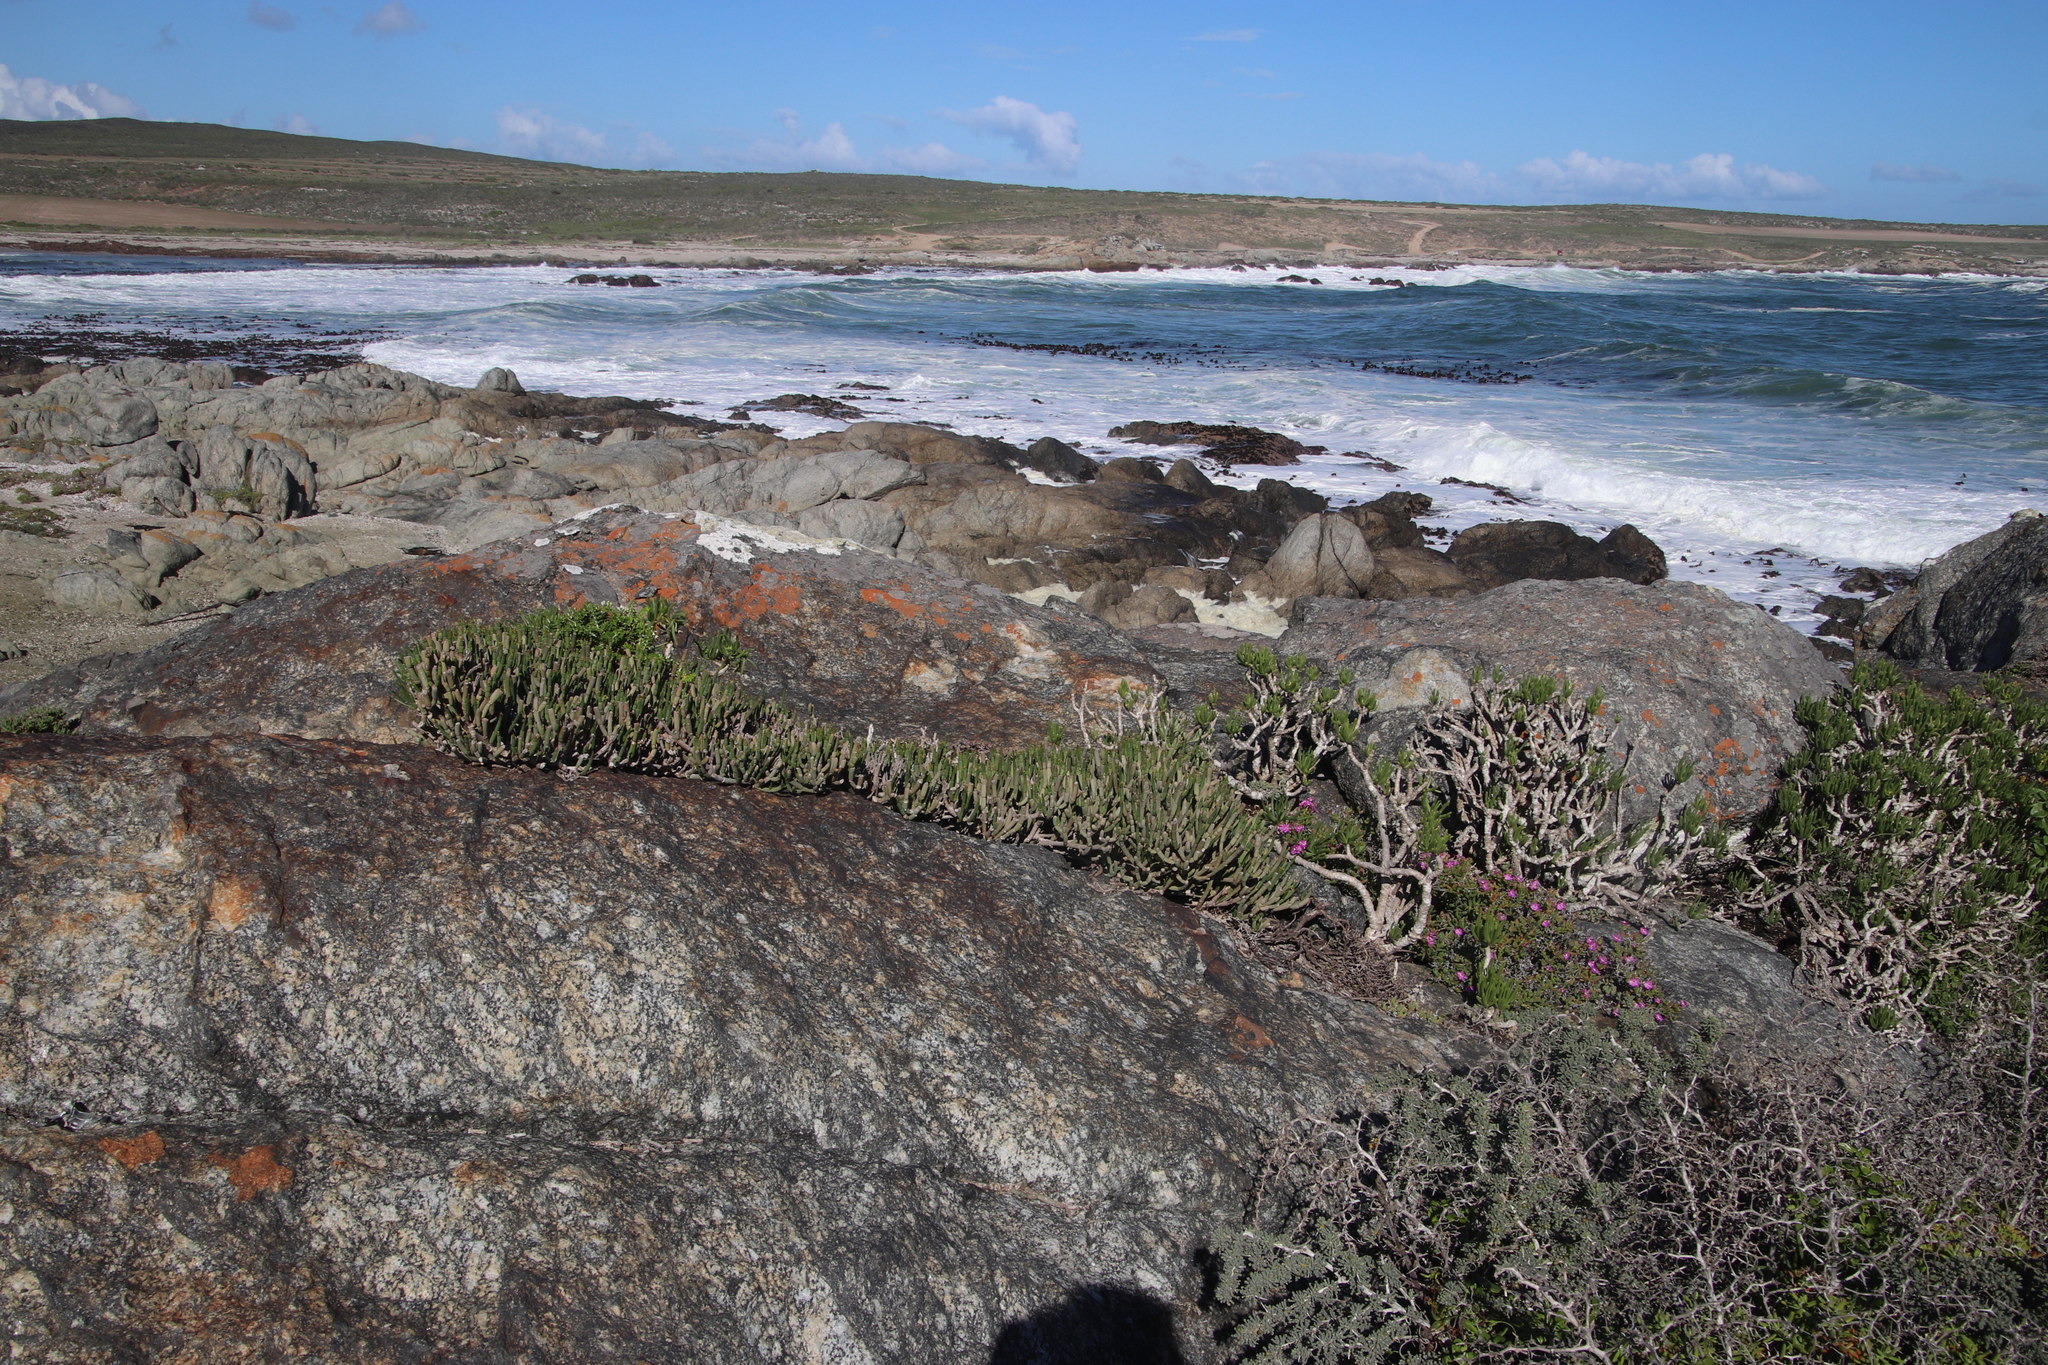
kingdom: Plantae
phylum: Tracheophyta
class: Magnoliopsida
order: Malpighiales
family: Euphorbiaceae
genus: Euphorbia
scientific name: Euphorbia burmanni
